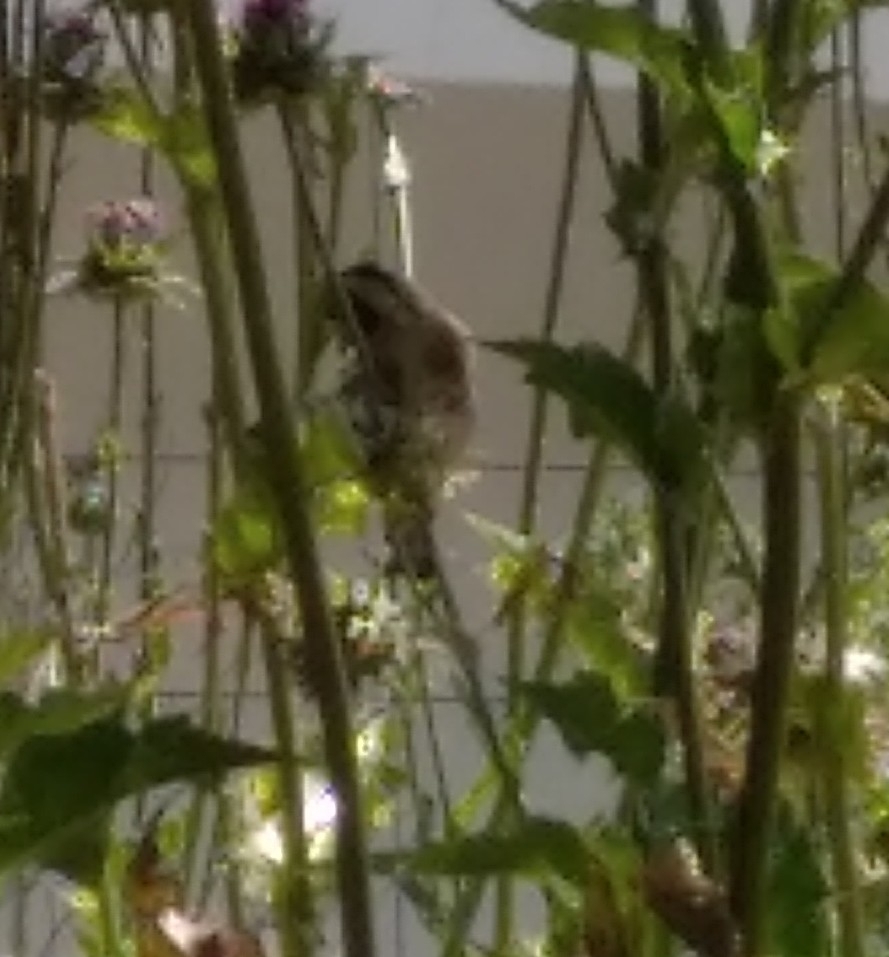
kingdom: Animalia
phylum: Chordata
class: Aves
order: Passeriformes
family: Fringillidae
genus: Carduelis
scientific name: Carduelis carduelis
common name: European goldfinch
